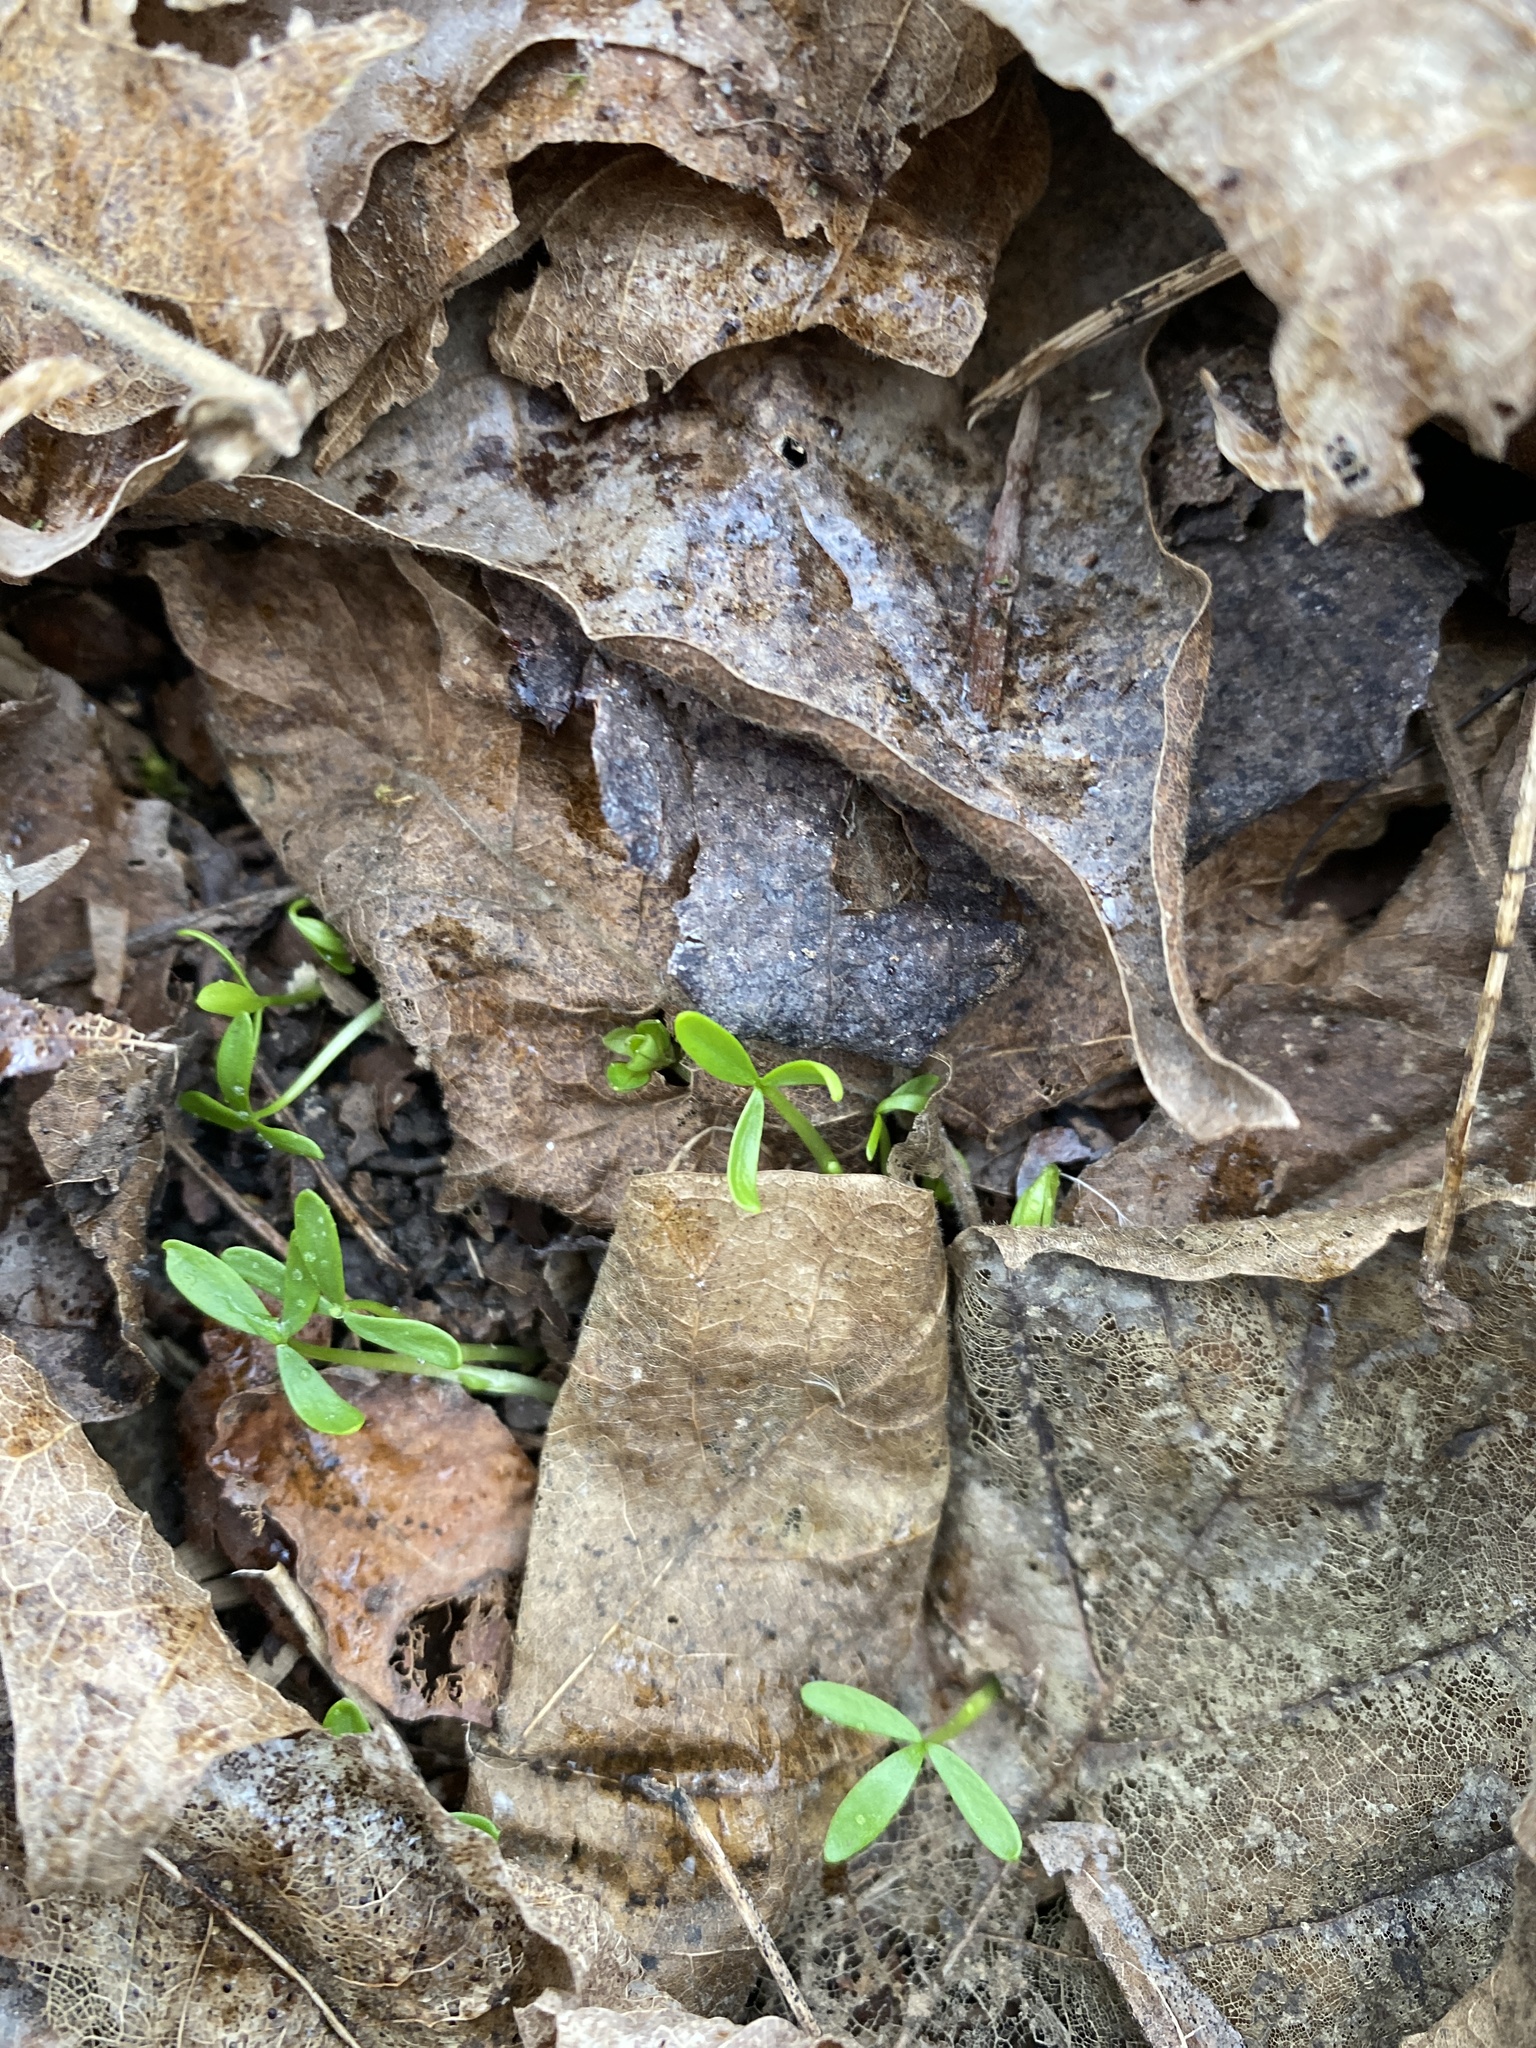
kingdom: Plantae
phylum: Tracheophyta
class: Magnoliopsida
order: Brassicales
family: Limnanthaceae
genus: Floerkea
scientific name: Floerkea proserpinacoides
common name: False mermaid
